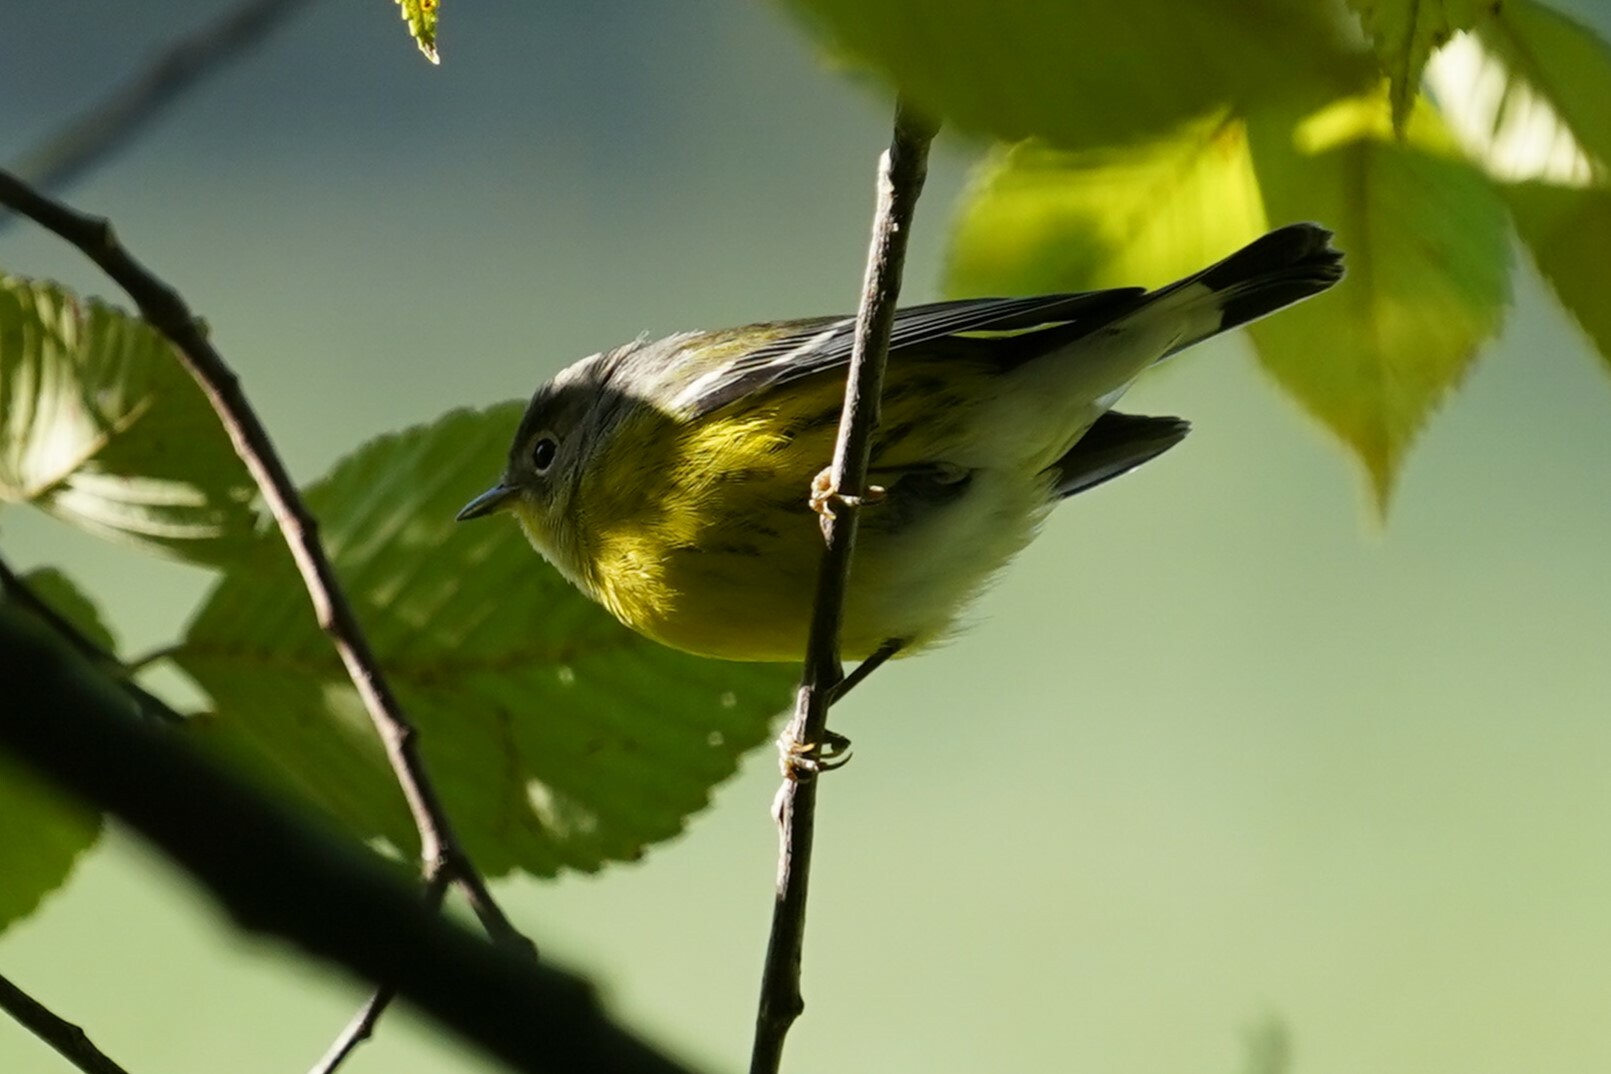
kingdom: Animalia
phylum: Chordata
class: Aves
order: Passeriformes
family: Parulidae
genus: Setophaga
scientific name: Setophaga magnolia
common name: Magnolia warbler
